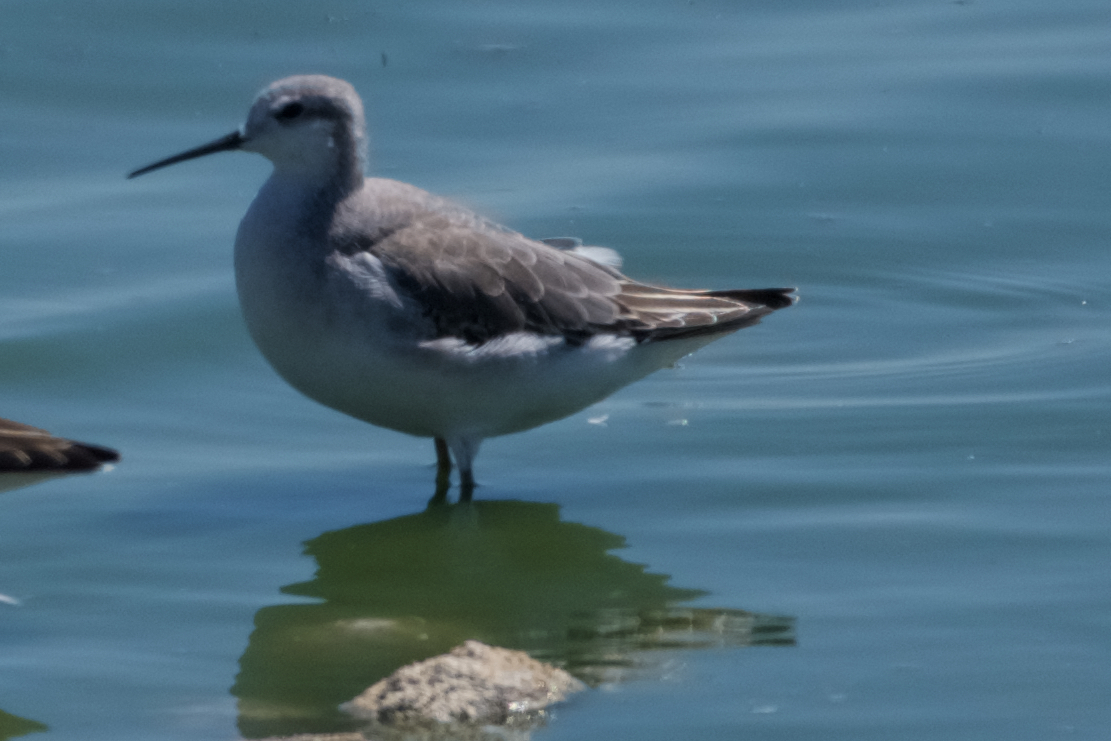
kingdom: Animalia
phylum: Chordata
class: Aves
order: Charadriiformes
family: Scolopacidae
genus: Phalaropus
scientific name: Phalaropus tricolor
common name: Wilson's phalarope
